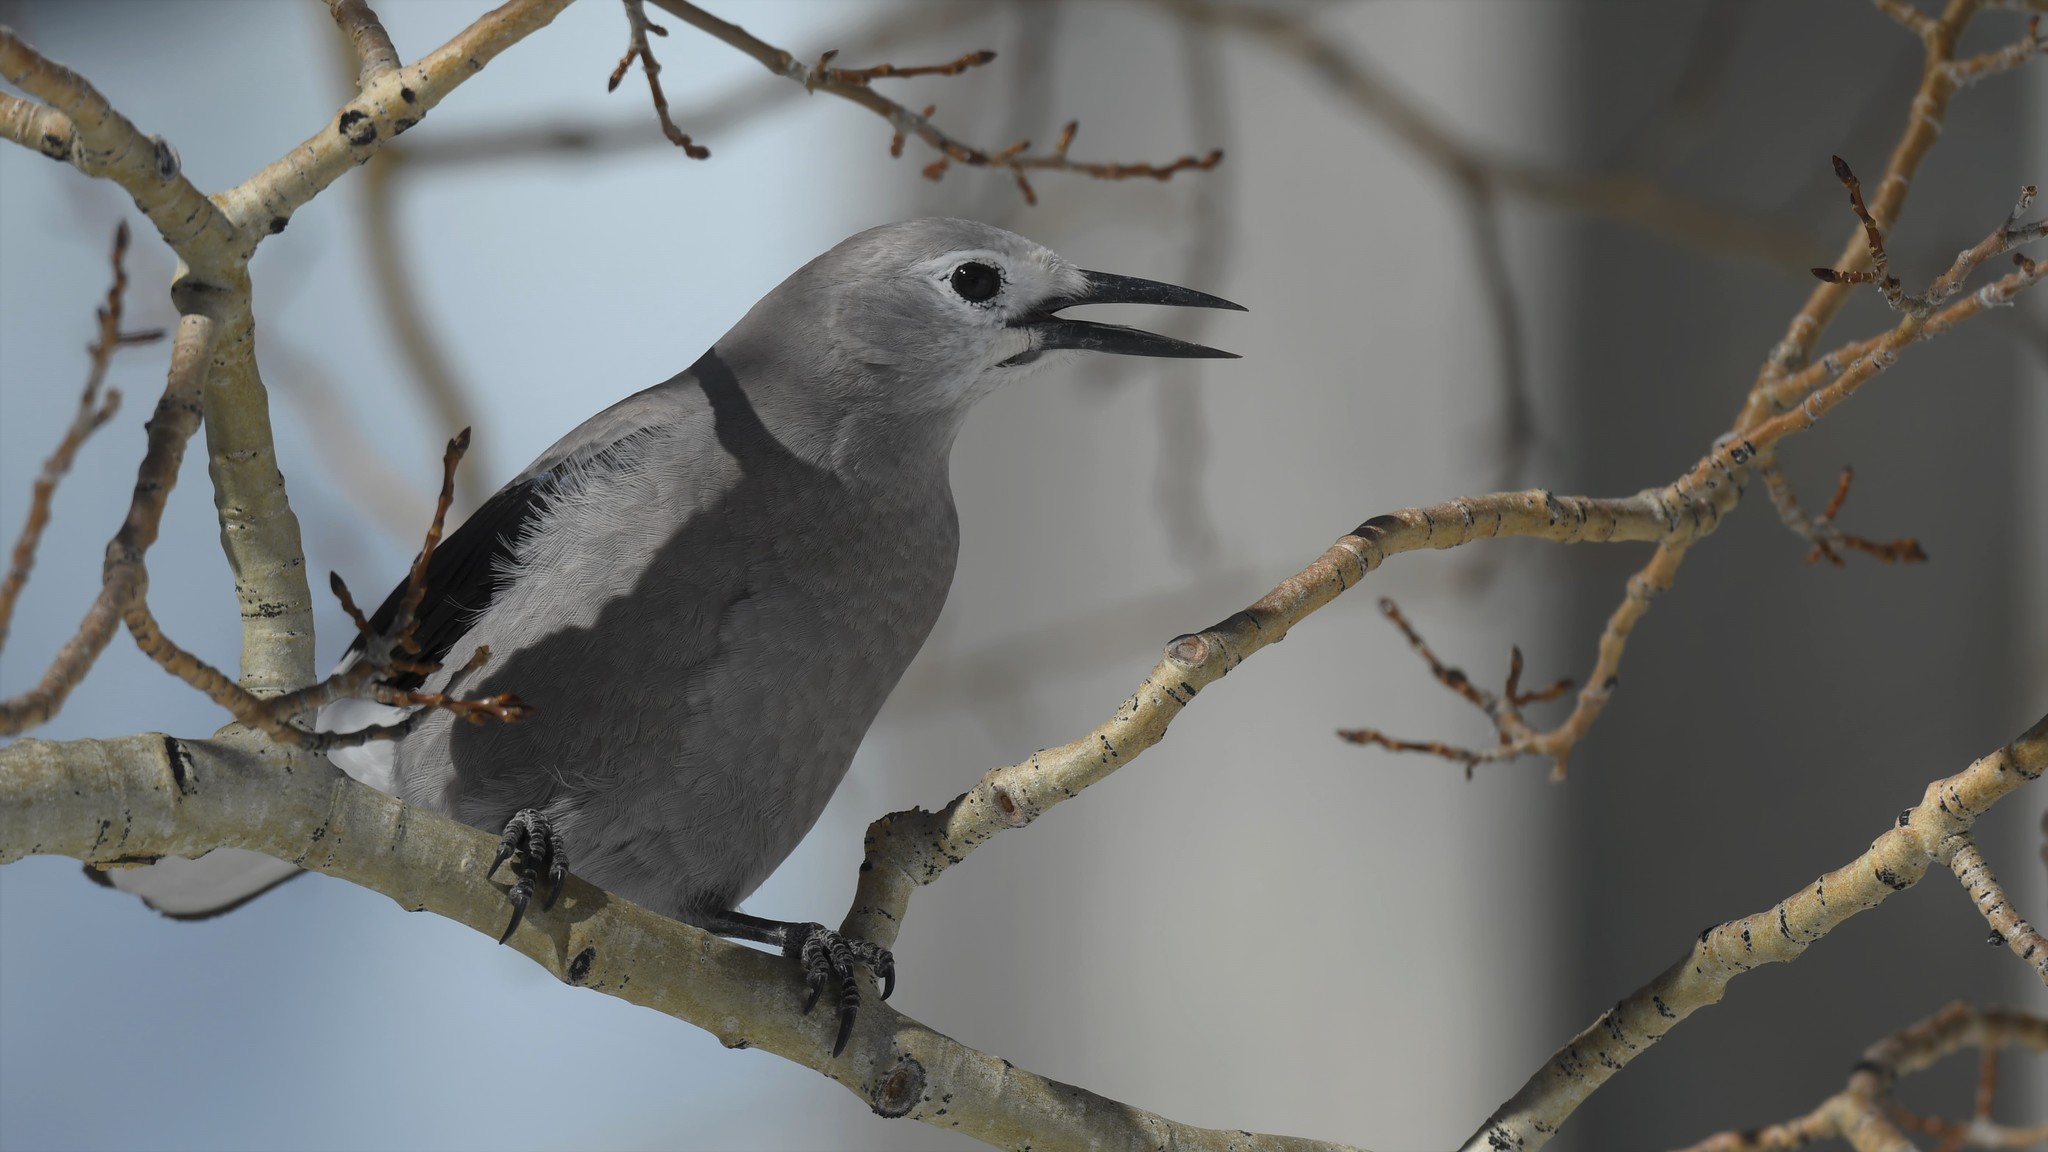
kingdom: Animalia
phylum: Chordata
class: Aves
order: Passeriformes
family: Corvidae
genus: Nucifraga
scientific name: Nucifraga columbiana
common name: Clark's nutcracker
